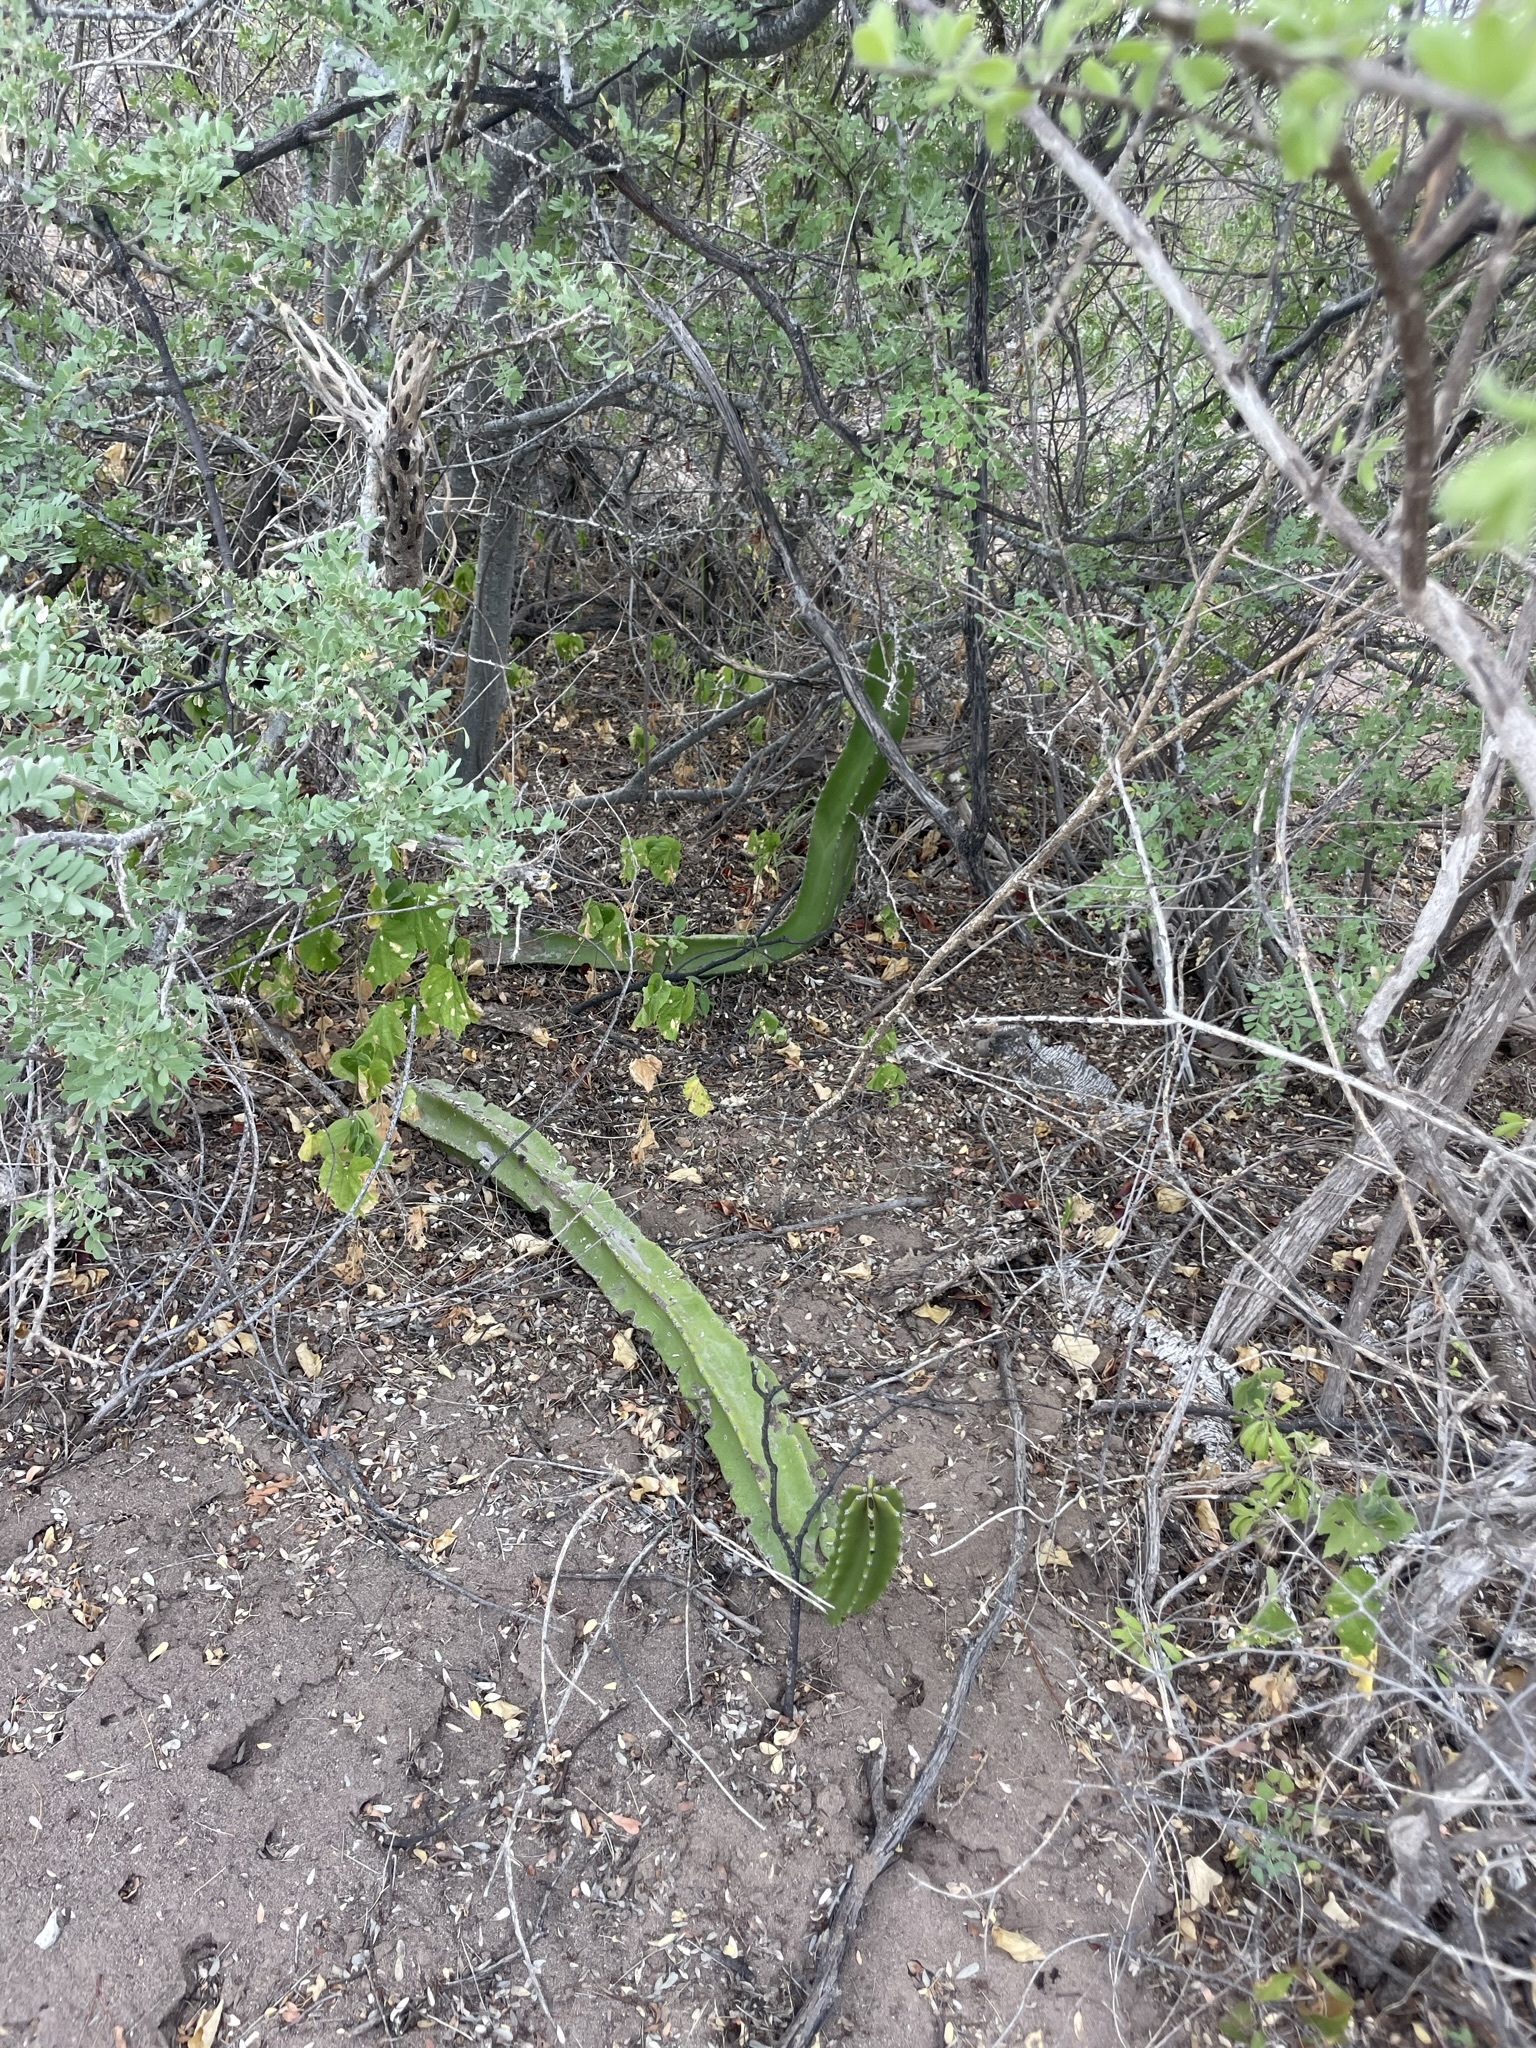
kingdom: Plantae
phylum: Tracheophyta
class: Magnoliopsida
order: Caryophyllales
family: Cactaceae
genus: Pachycereus
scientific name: Pachycereus schottii
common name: Senita cactus
